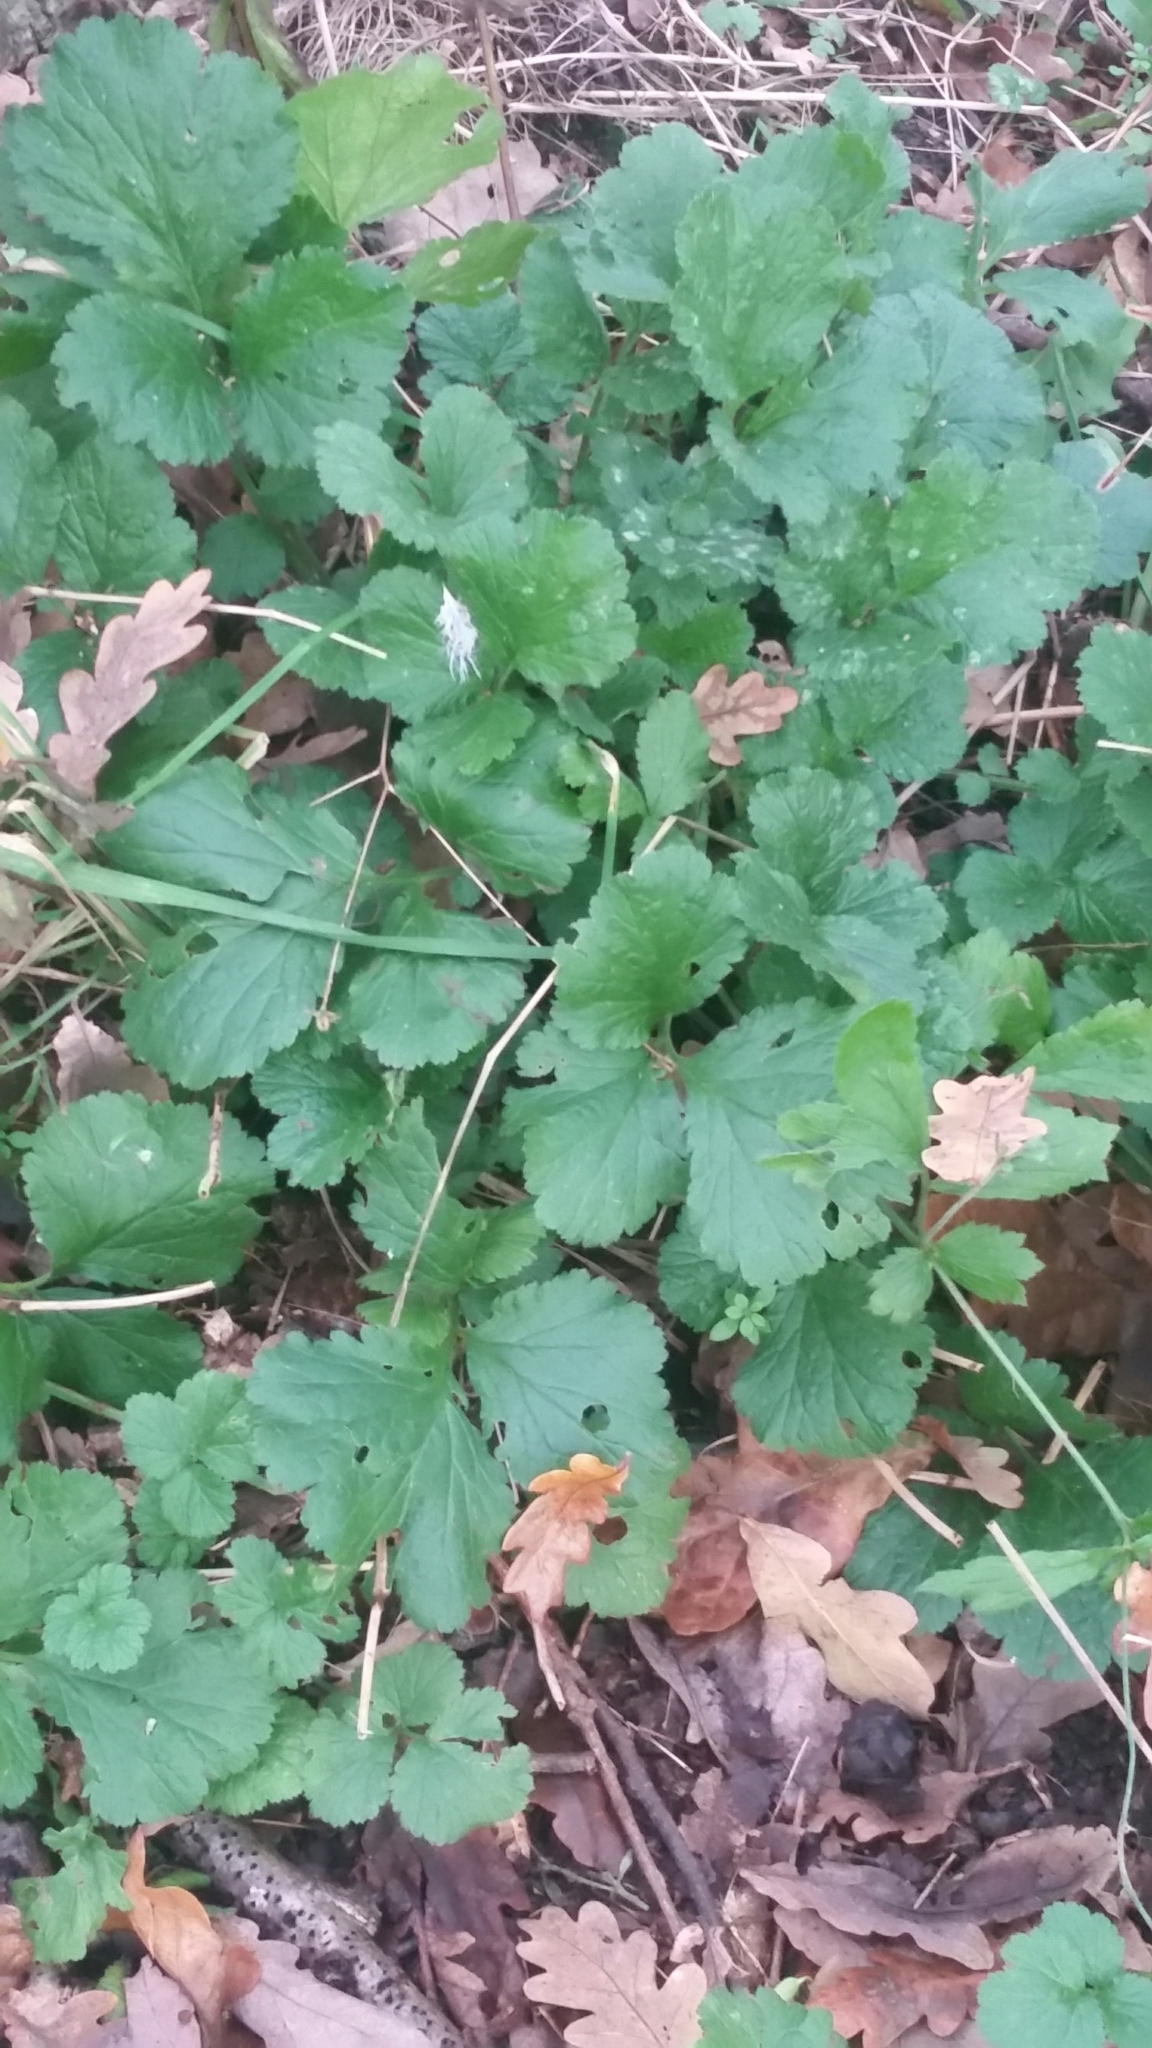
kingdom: Plantae
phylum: Tracheophyta
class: Magnoliopsida
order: Rosales
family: Rosaceae
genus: Geum
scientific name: Geum urbanum
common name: Wood avens
